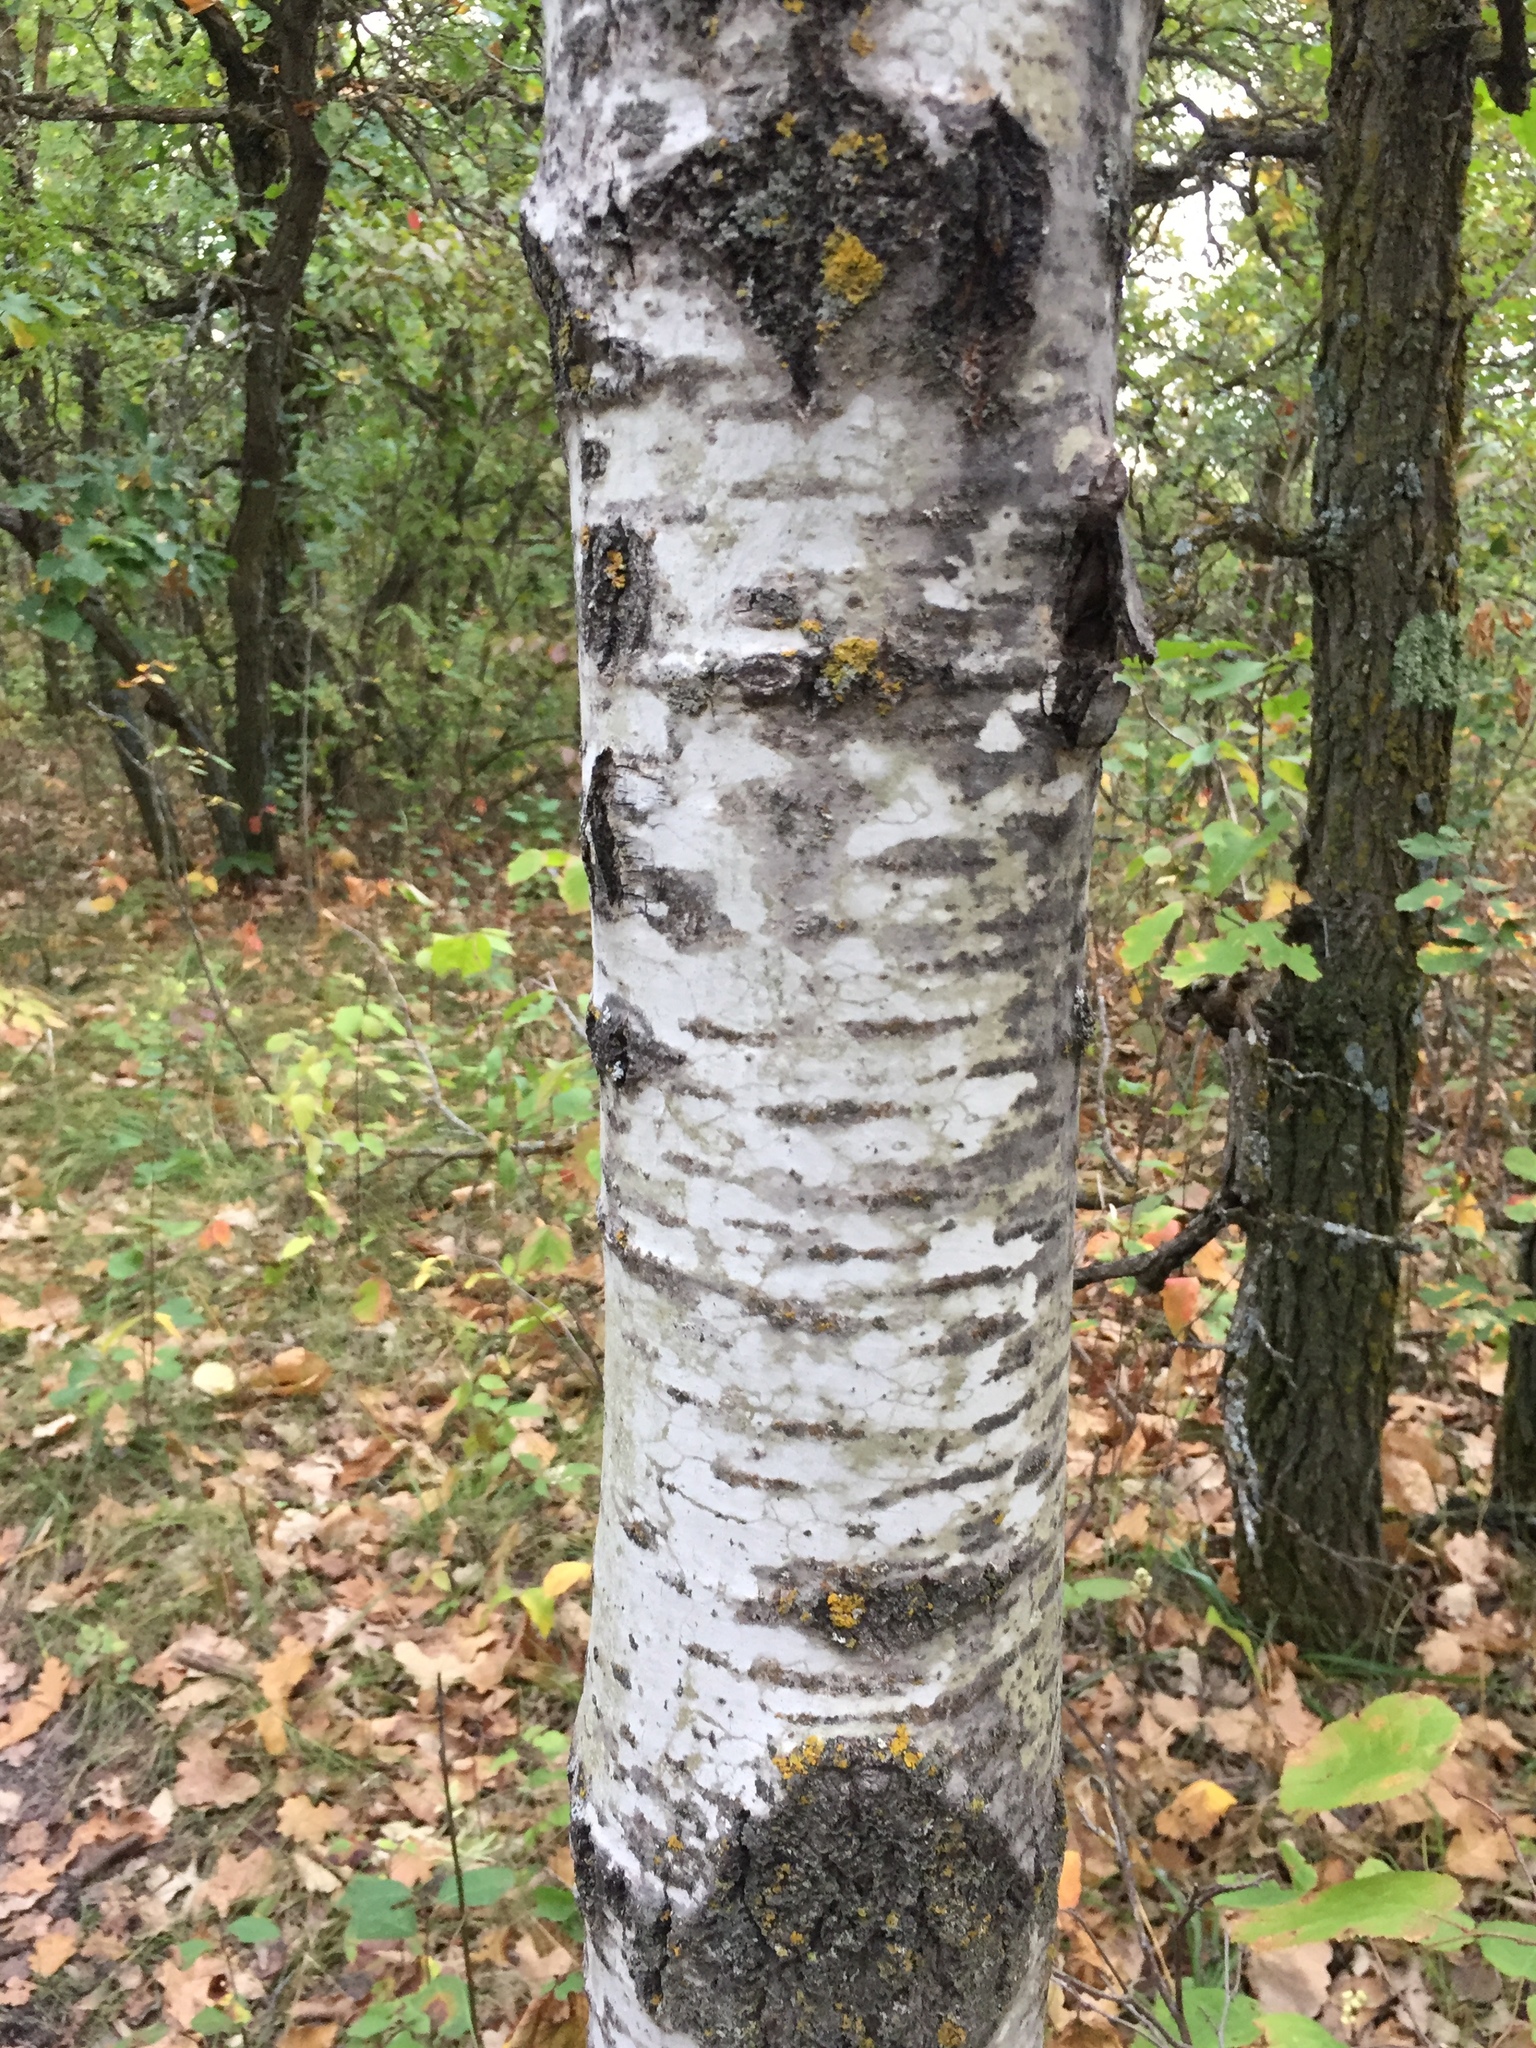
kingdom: Plantae
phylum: Tracheophyta
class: Magnoliopsida
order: Malpighiales
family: Salicaceae
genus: Populus
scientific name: Populus tremuloides
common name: Quaking aspen
